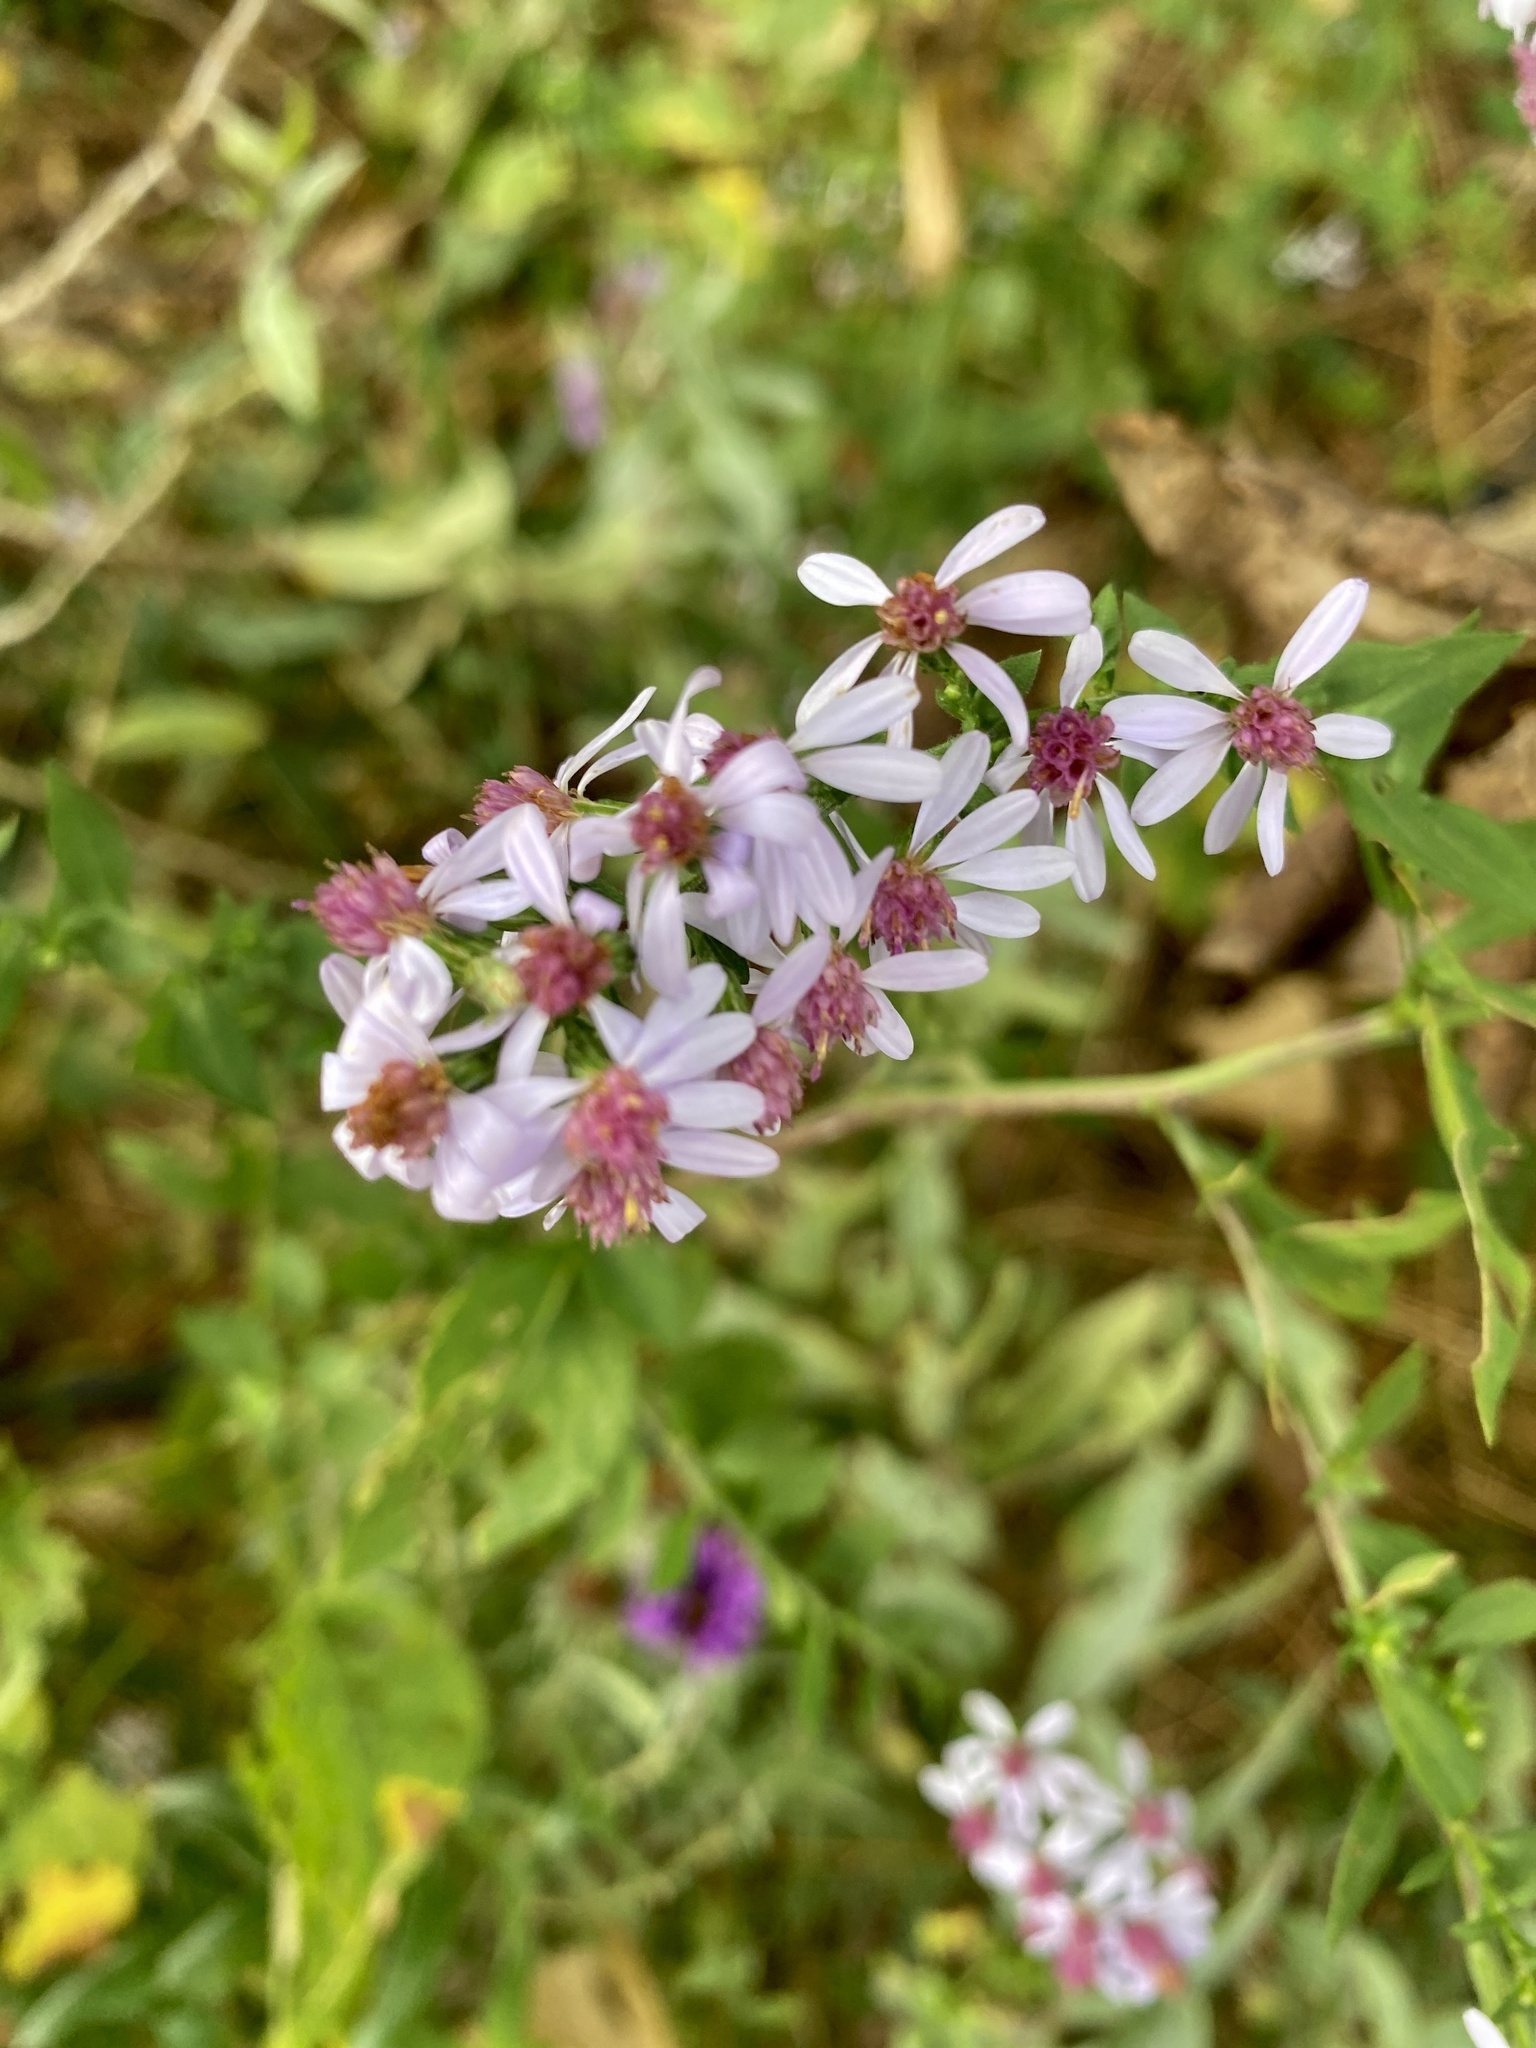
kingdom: Plantae
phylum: Tracheophyta
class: Magnoliopsida
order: Asterales
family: Asteraceae
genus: Symphyotrichum
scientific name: Symphyotrichum cordifolium
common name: Beeweed
